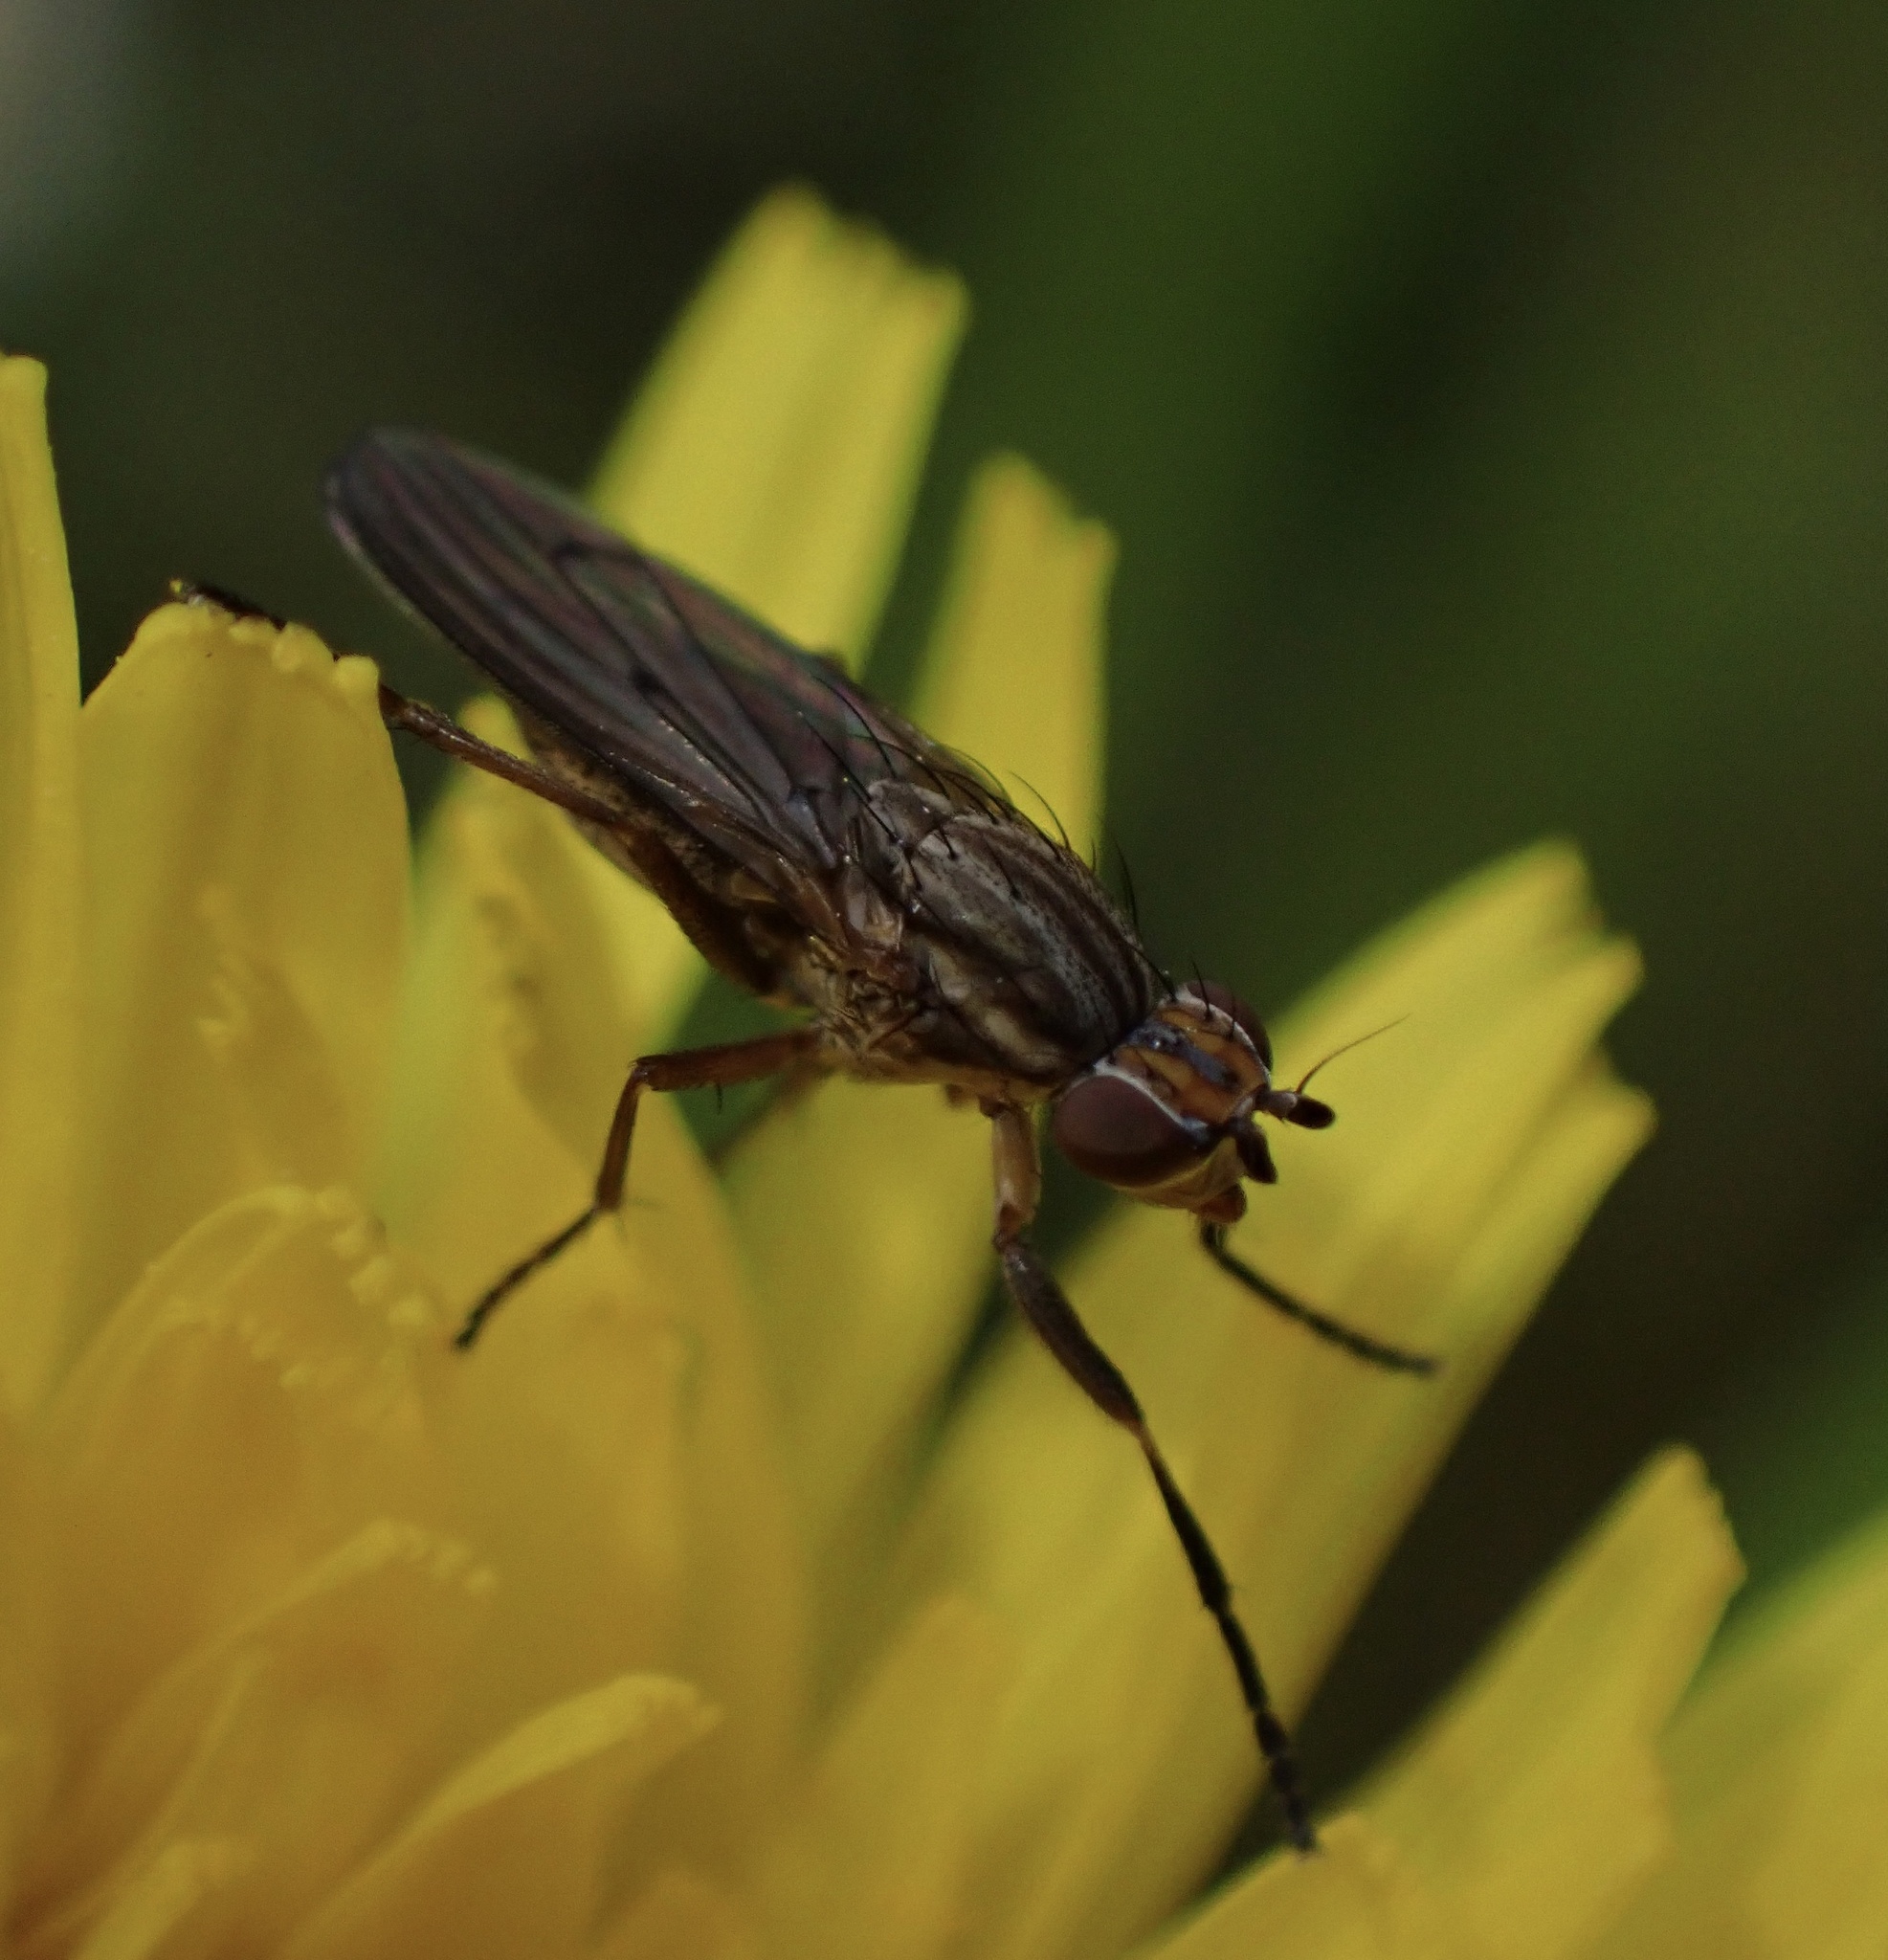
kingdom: Animalia
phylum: Arthropoda
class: Insecta
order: Diptera
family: Sciomyzidae
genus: Pherbellia
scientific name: Pherbellia cinerella
